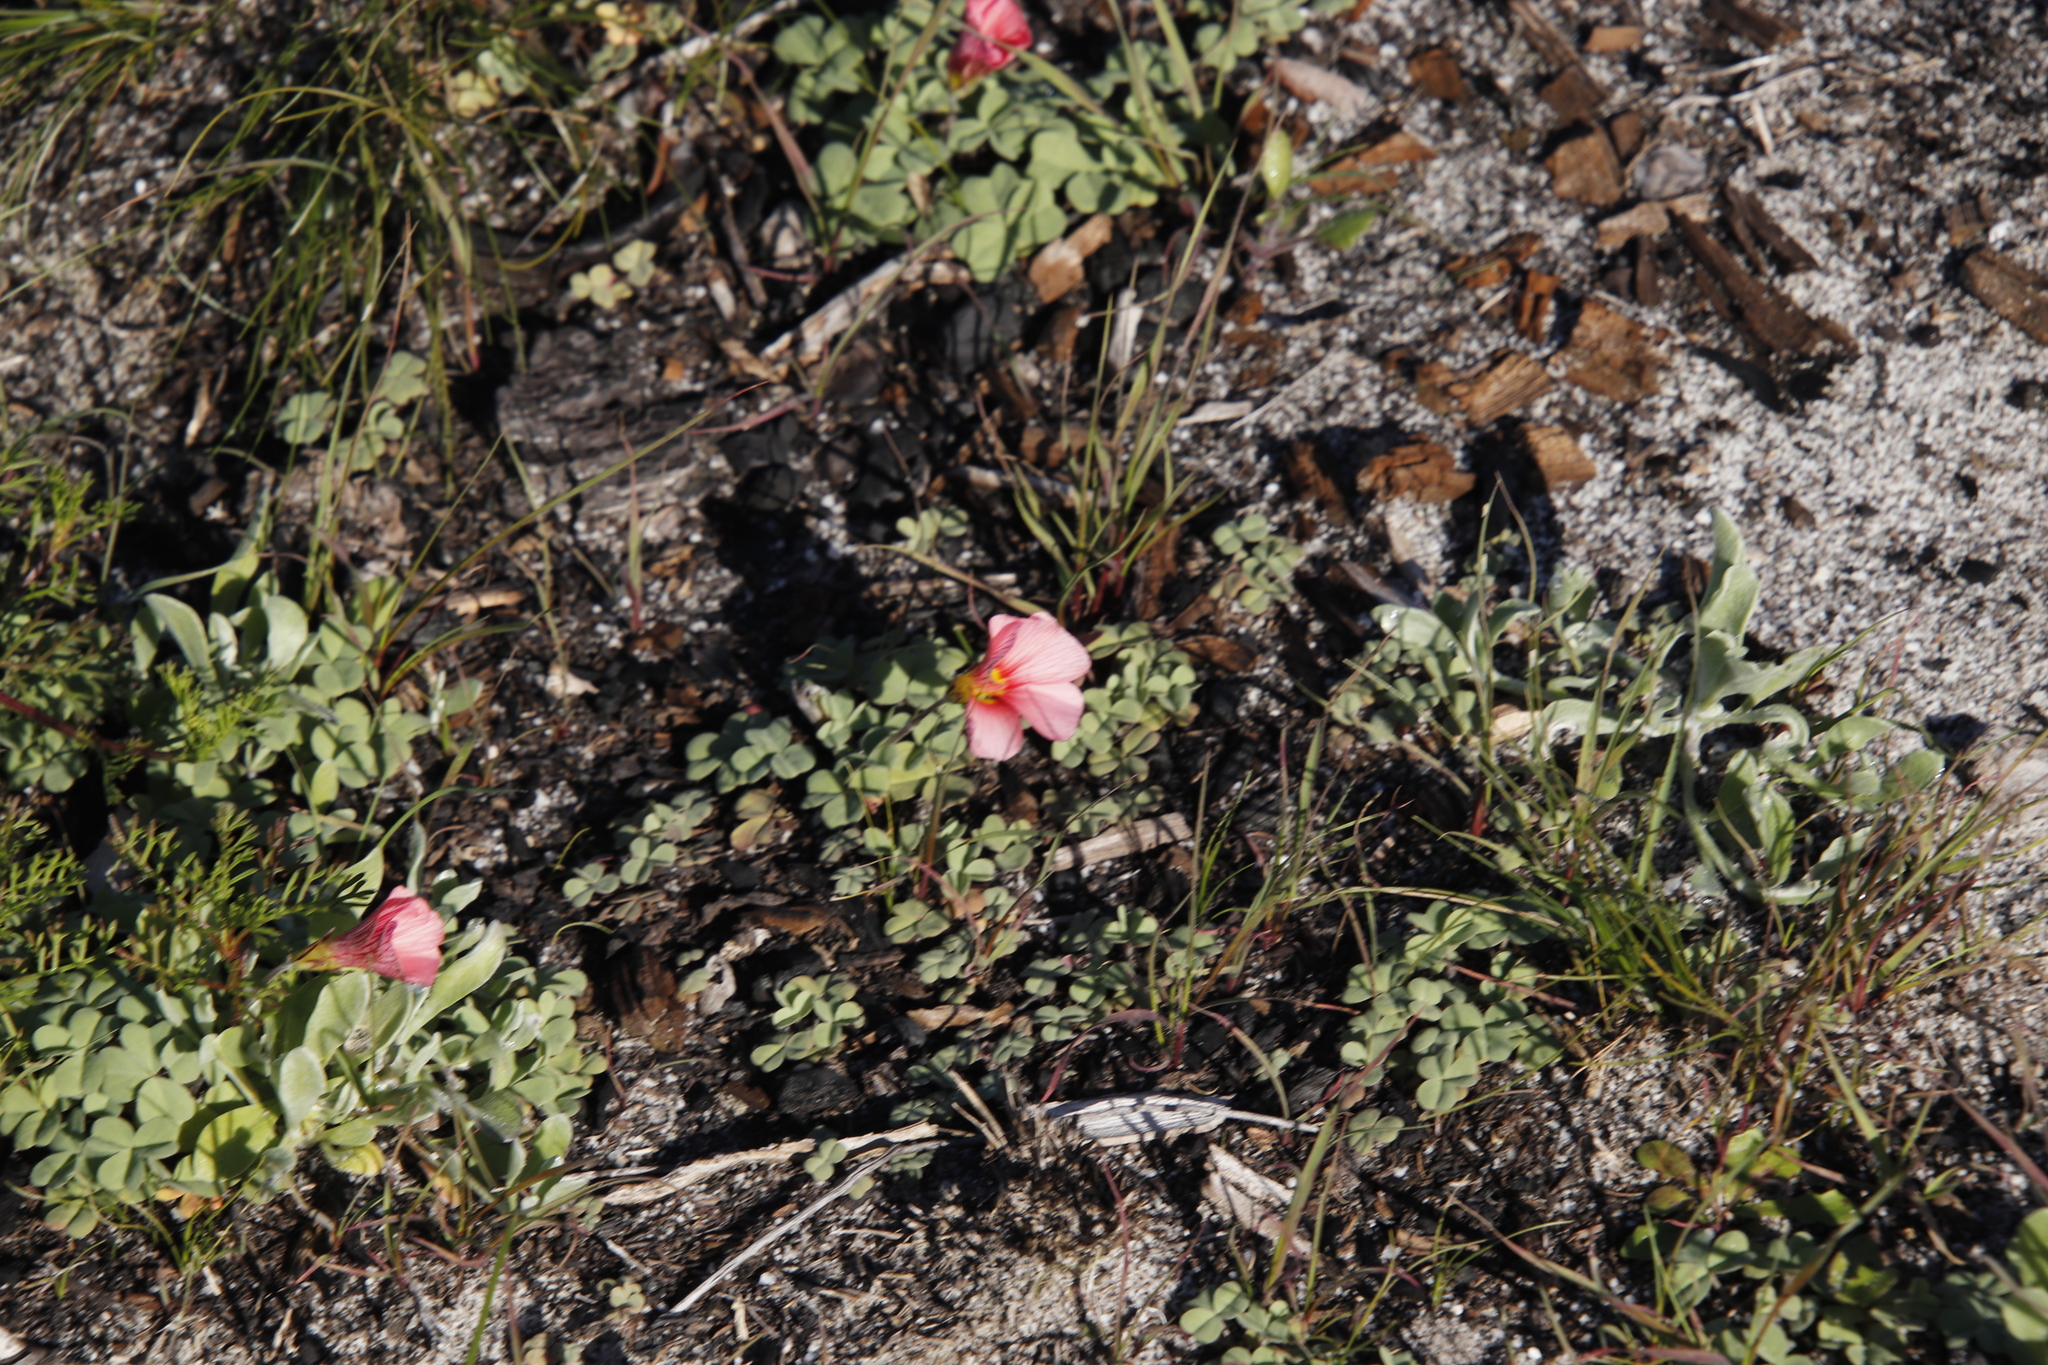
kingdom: Plantae
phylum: Tracheophyta
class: Magnoliopsida
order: Oxalidales
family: Oxalidaceae
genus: Oxalis
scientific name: Oxalis obtusa
